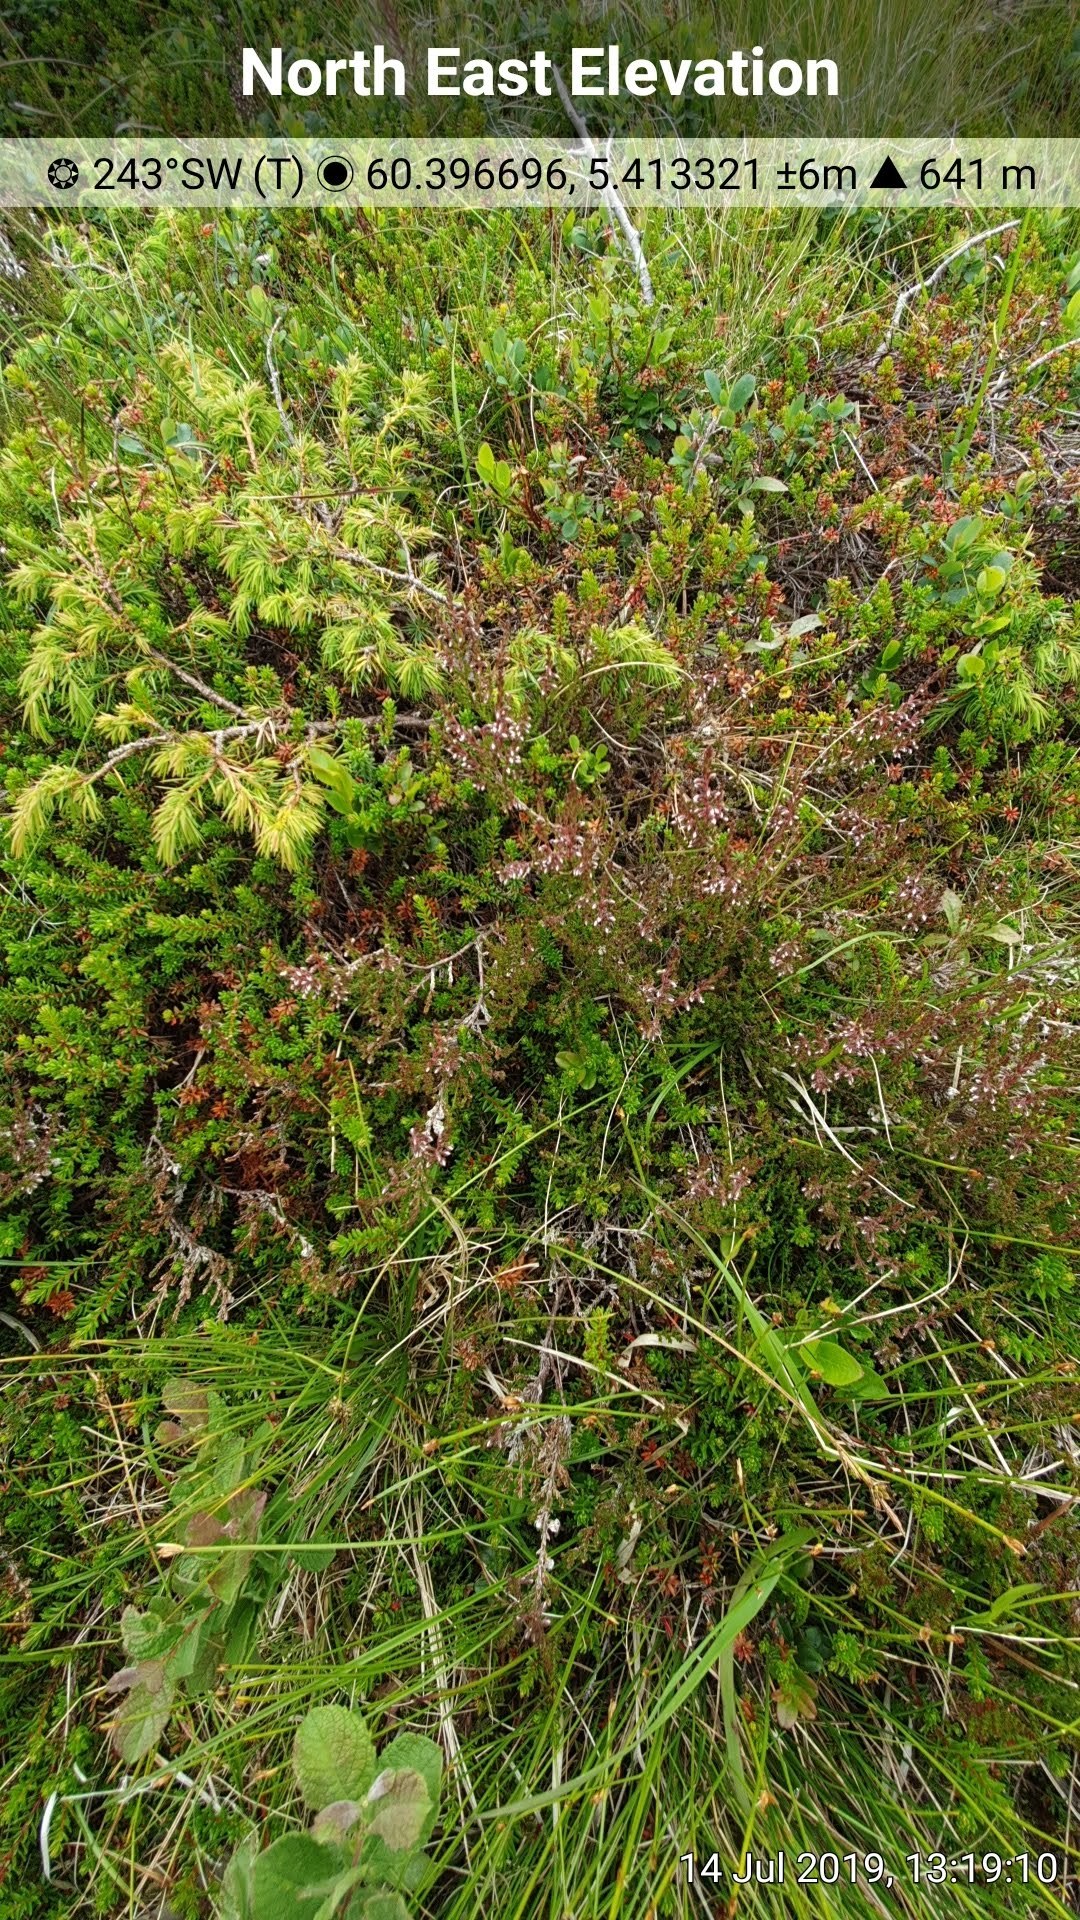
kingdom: Plantae
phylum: Tracheophyta
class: Magnoliopsida
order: Ericales
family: Ericaceae
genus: Calluna
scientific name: Calluna vulgaris
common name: Heather
